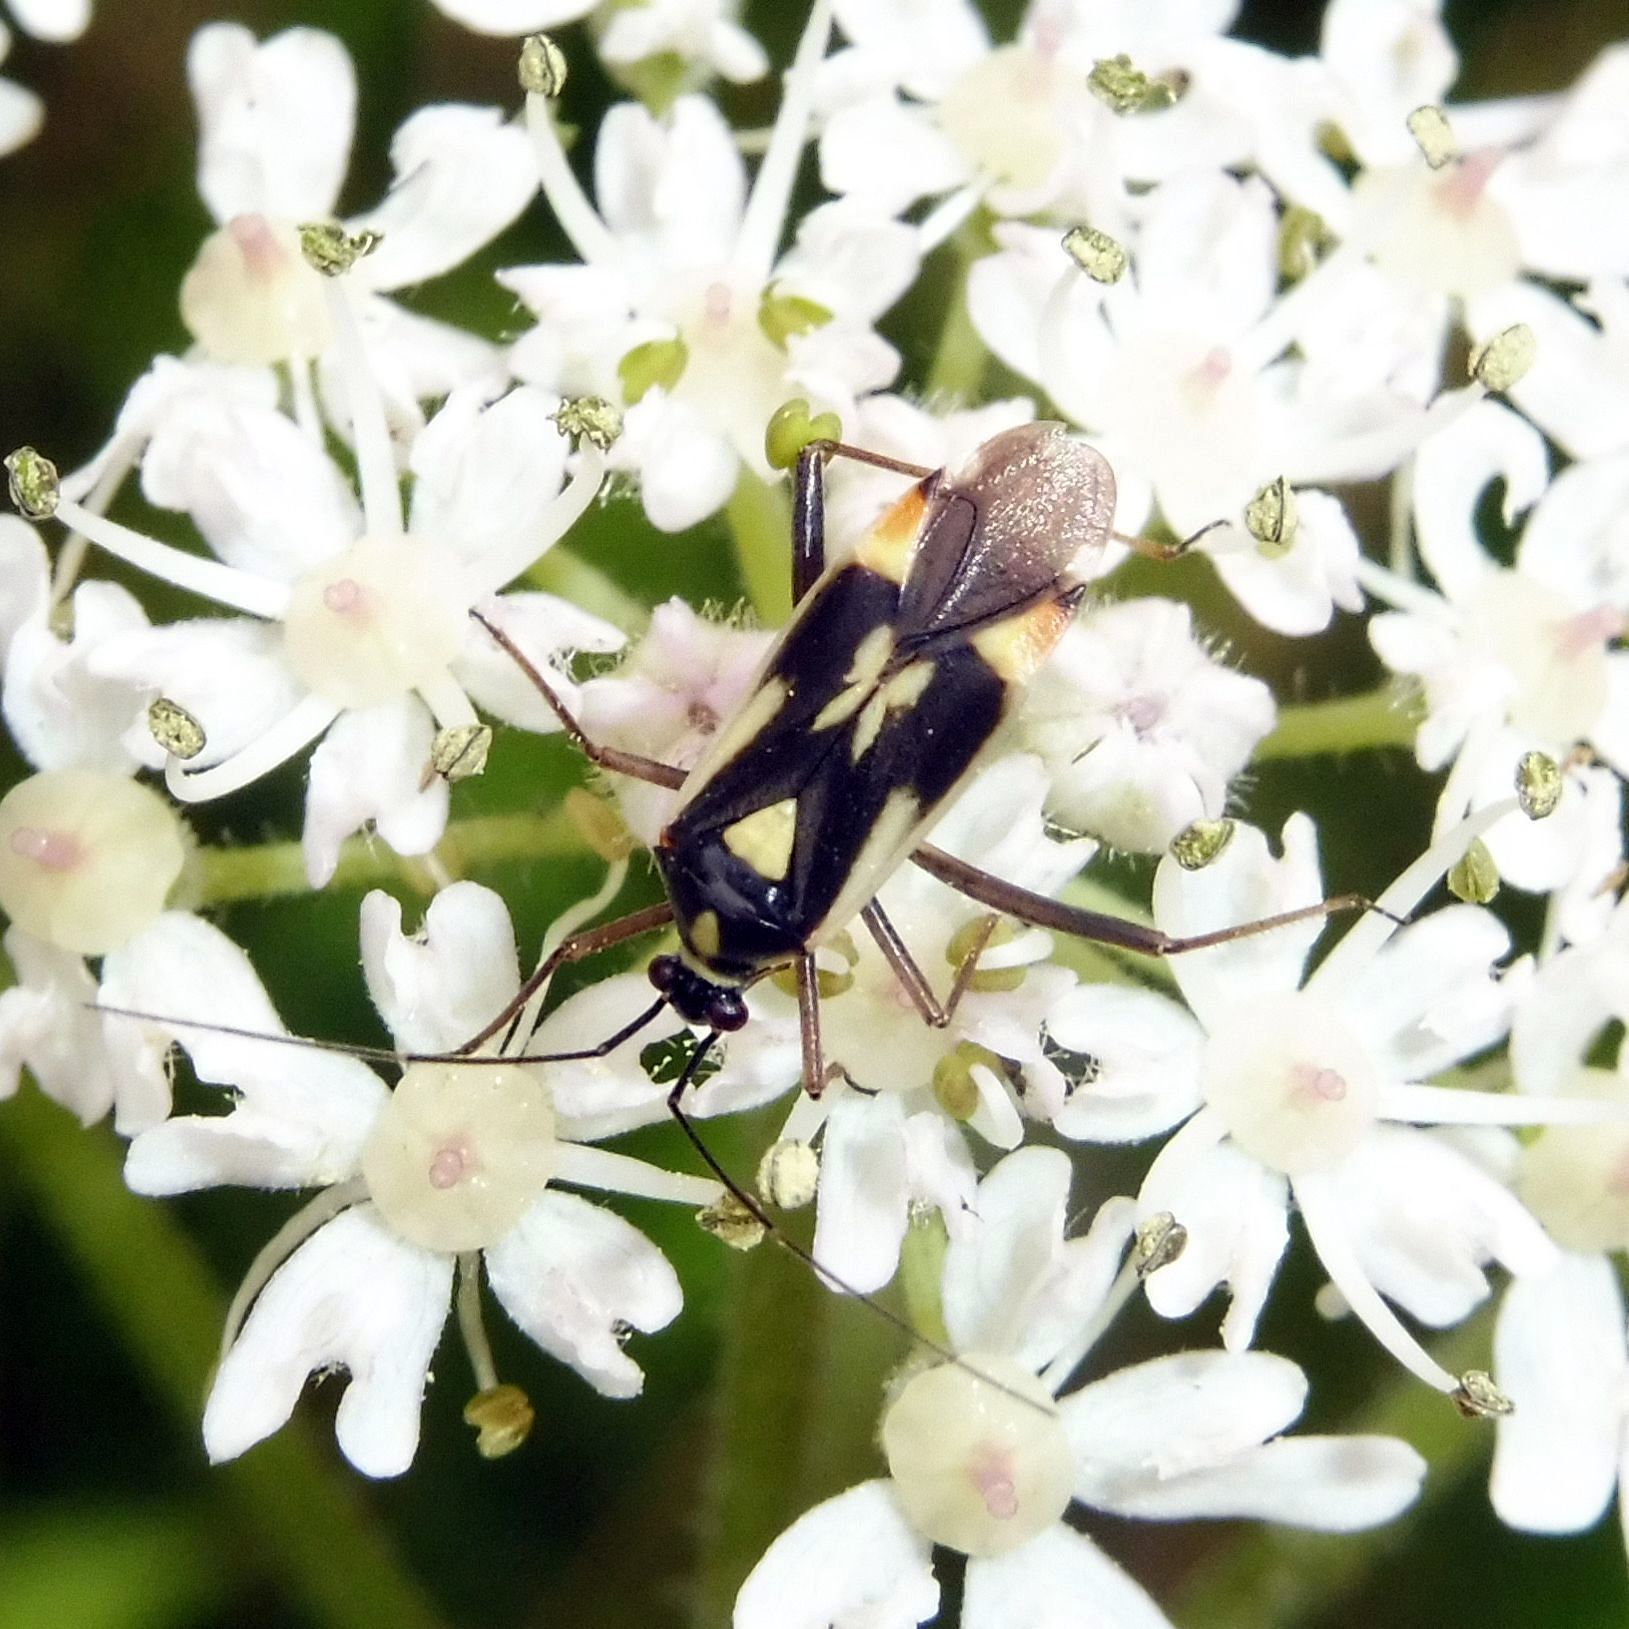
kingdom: Animalia
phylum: Arthropoda
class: Insecta
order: Hemiptera
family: Miridae
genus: Grypocoris
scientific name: Grypocoris stysi
